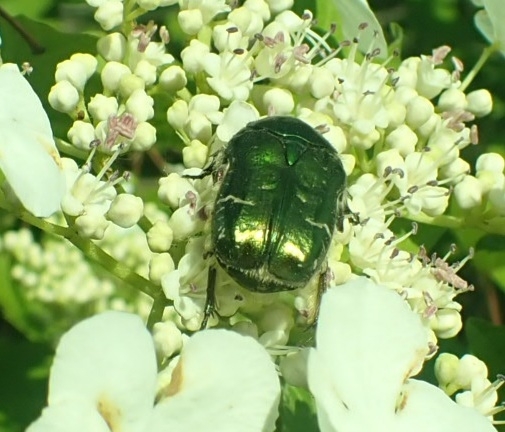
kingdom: Animalia
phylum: Arthropoda
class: Insecta
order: Coleoptera
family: Scarabaeidae
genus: Cetonia
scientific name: Cetonia aurata
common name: Rose chafer
